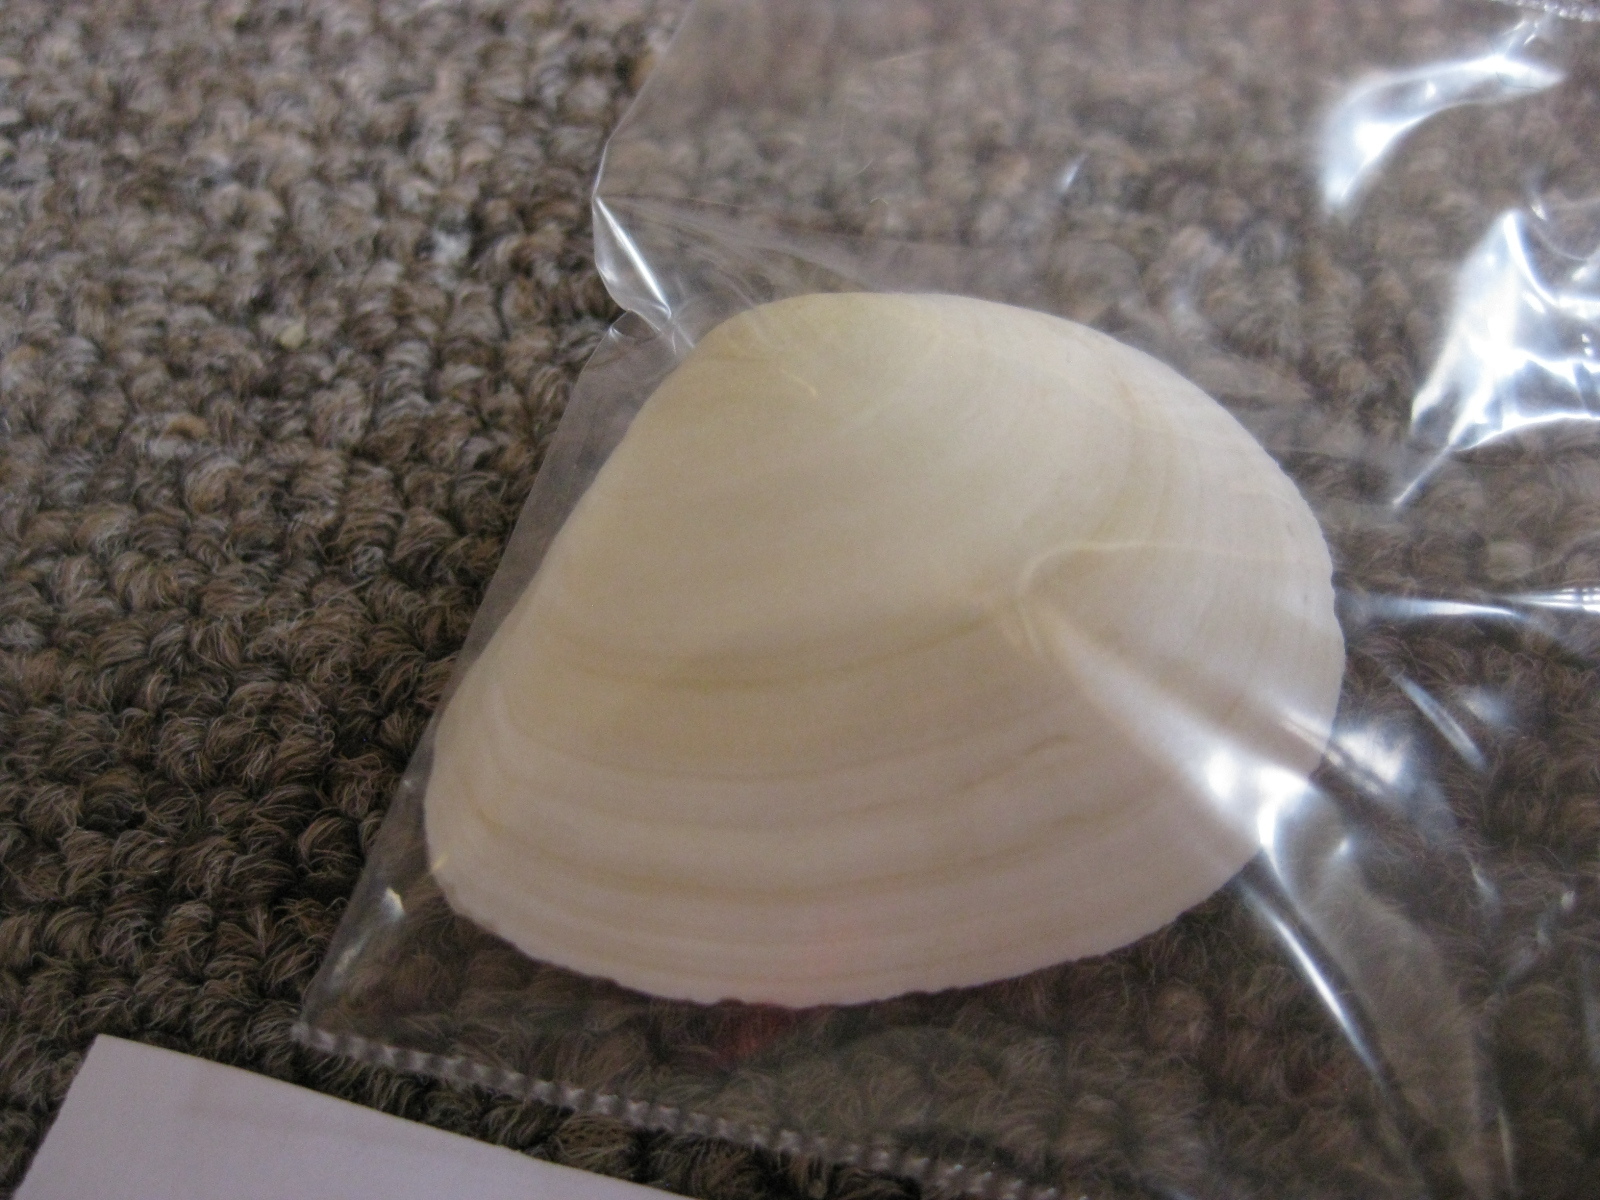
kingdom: Animalia
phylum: Mollusca
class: Bivalvia
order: Cardiida
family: Tellinidae
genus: Macomona
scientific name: Macomona liliana
